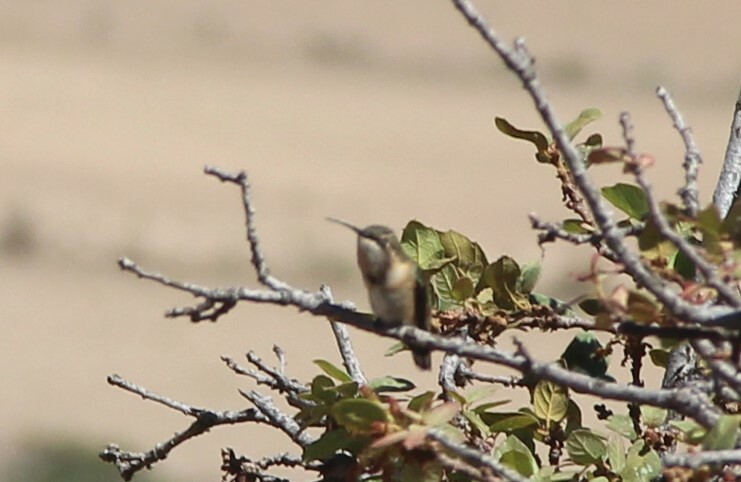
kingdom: Animalia
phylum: Chordata
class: Aves
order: Apodiformes
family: Trochilidae
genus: Calothorax
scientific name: Calothorax lucifer
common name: Lucifer sheartail
